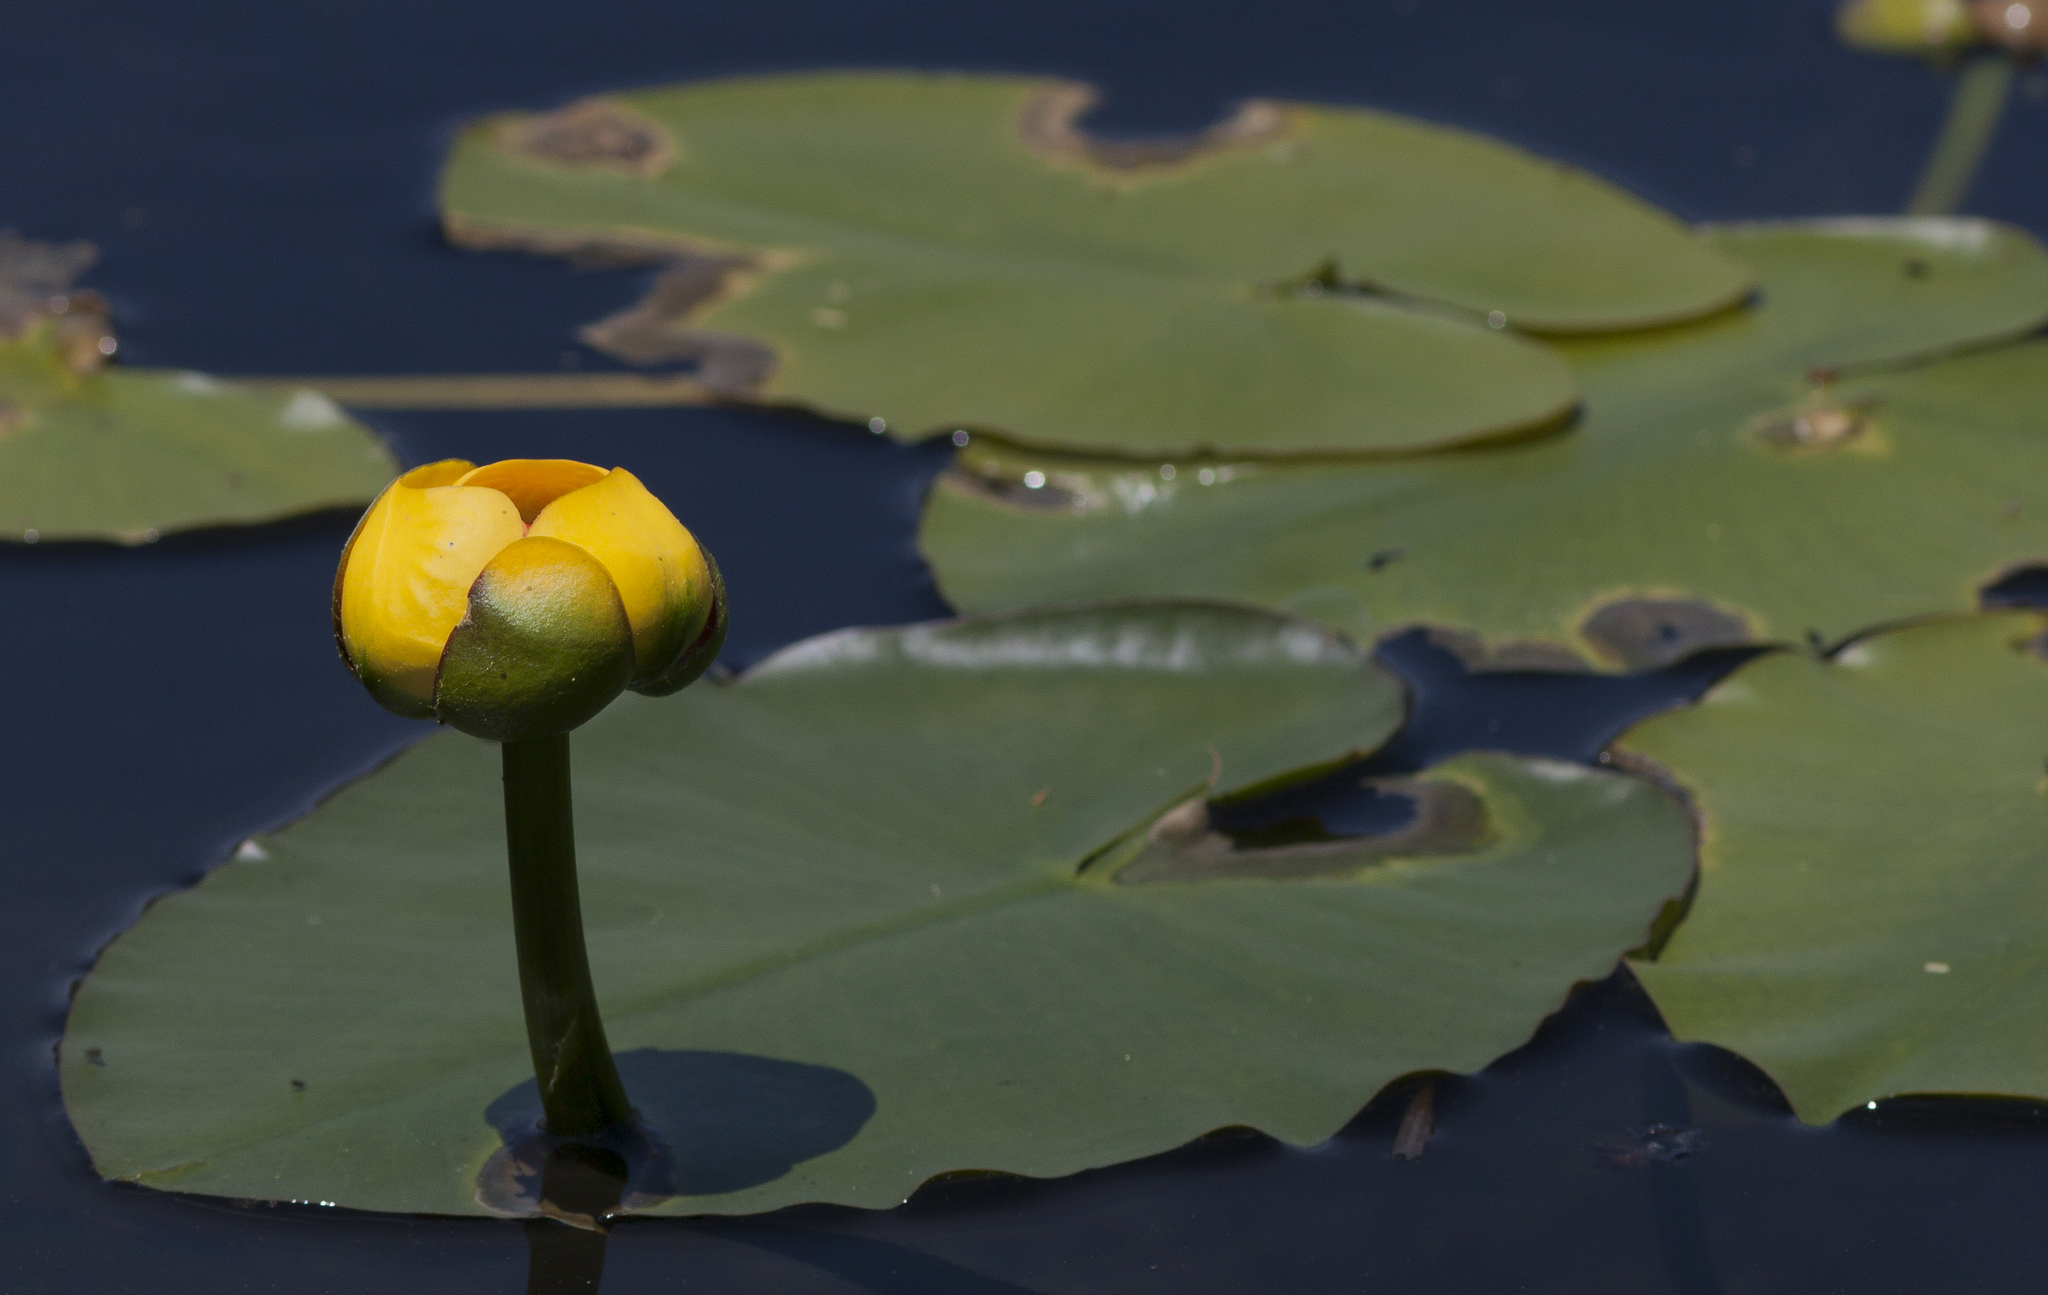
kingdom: Plantae
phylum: Tracheophyta
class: Magnoliopsida
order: Nymphaeales
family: Nymphaeaceae
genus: Nuphar
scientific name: Nuphar
